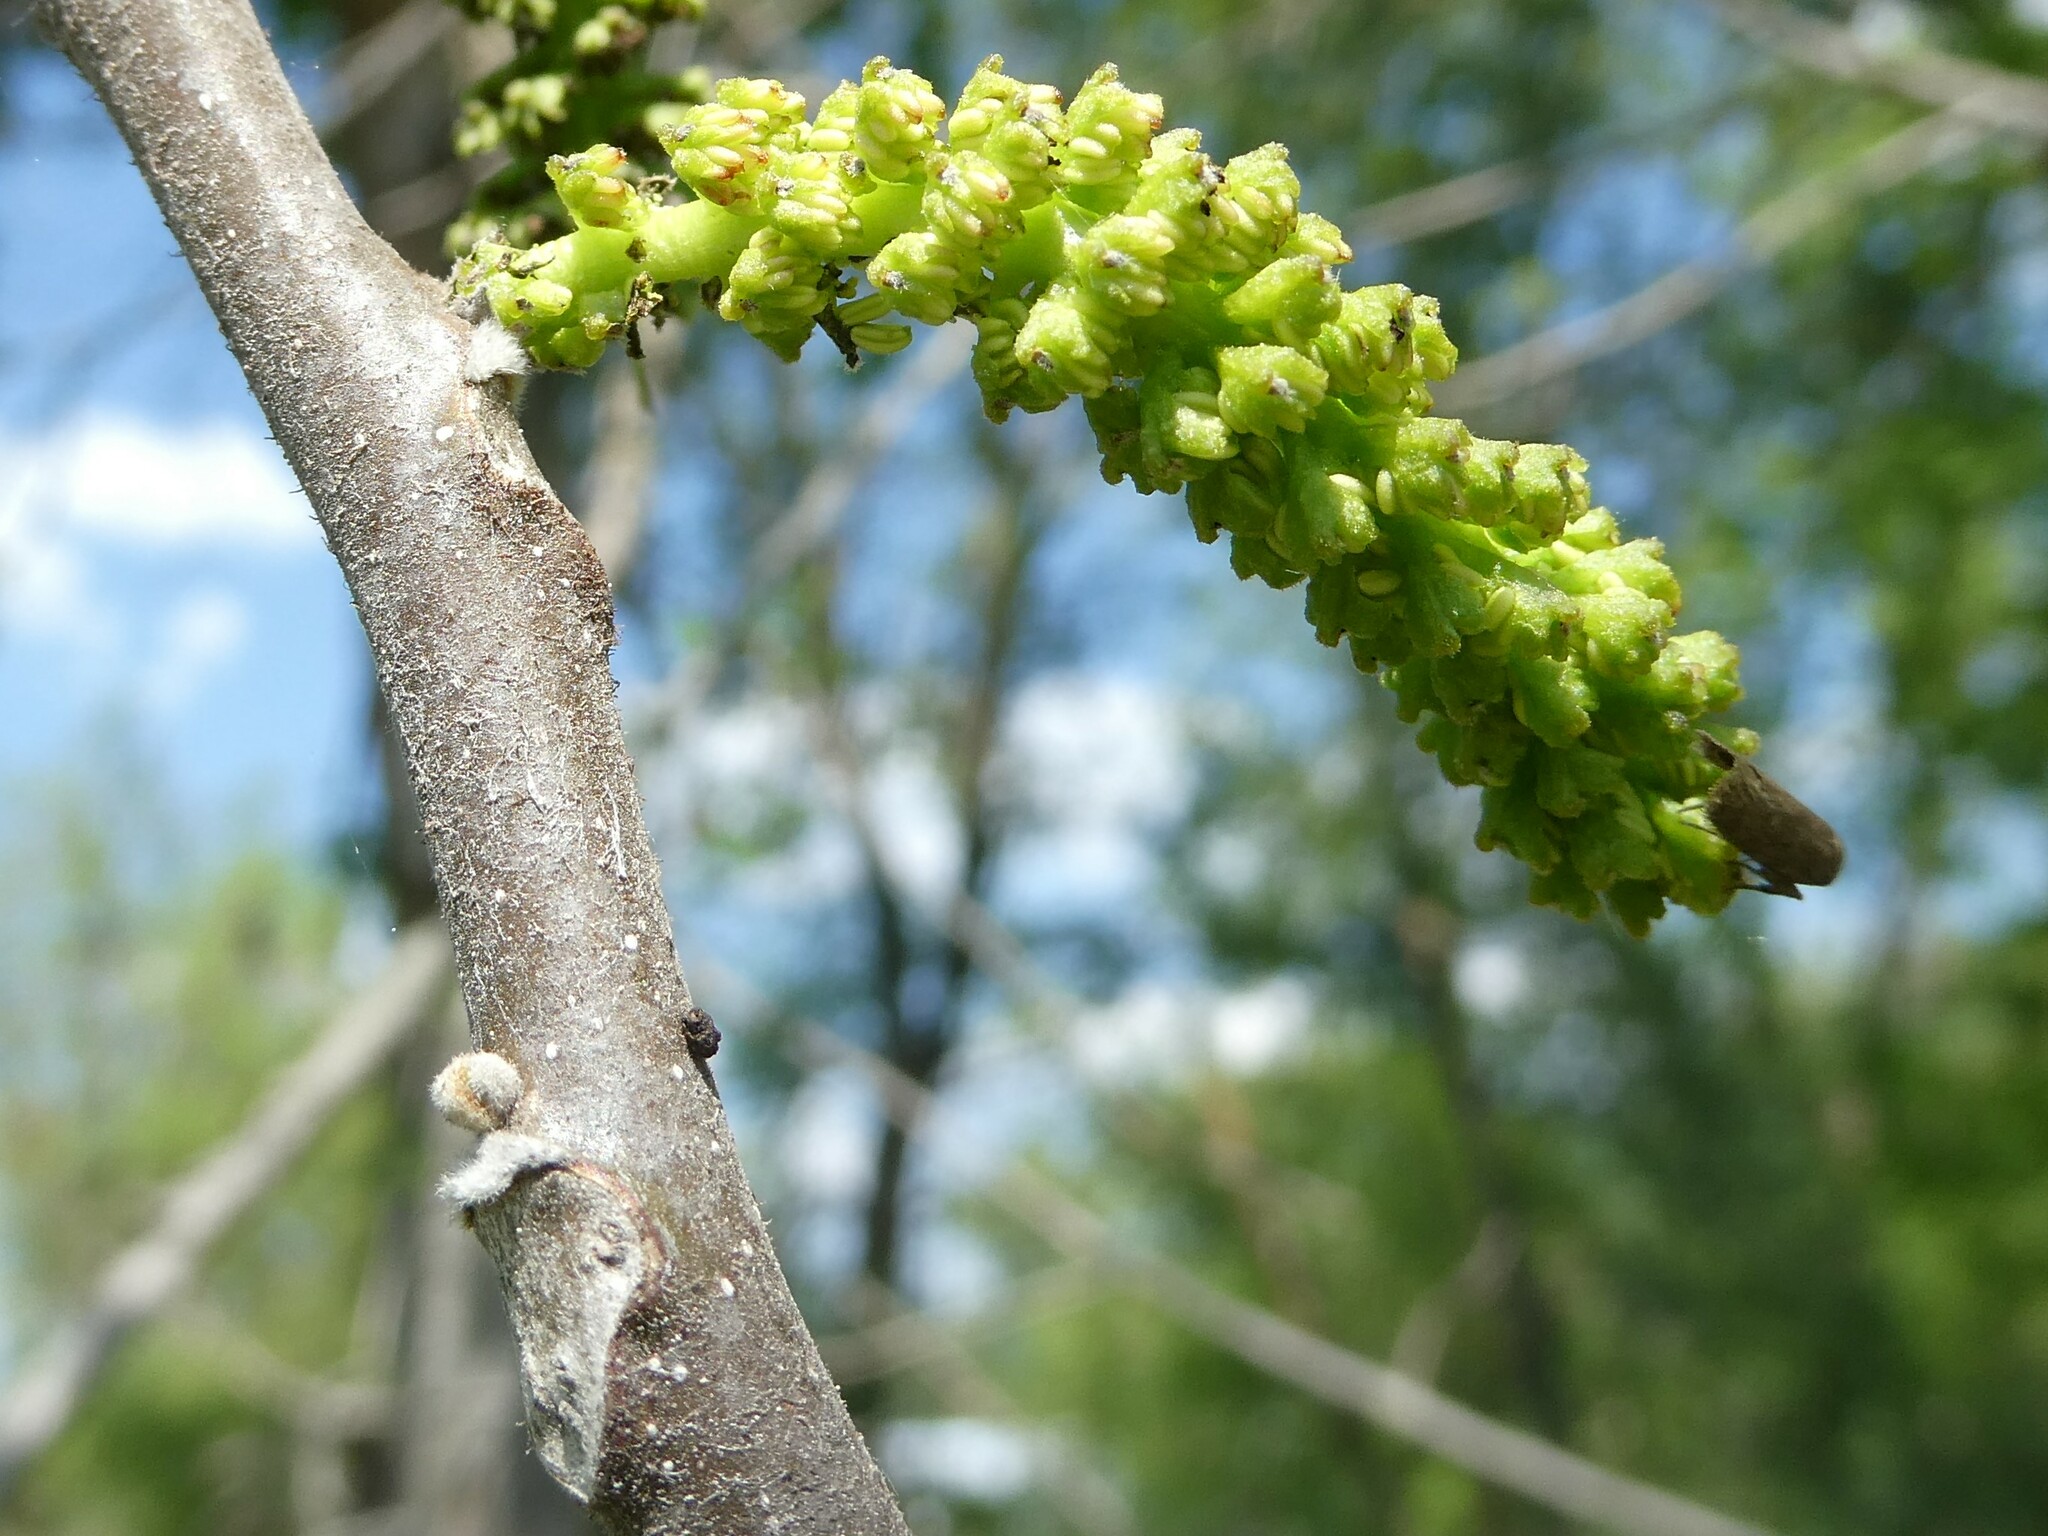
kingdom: Plantae
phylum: Tracheophyta
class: Magnoliopsida
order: Fagales
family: Juglandaceae
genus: Juglans
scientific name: Juglans cinerea
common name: Butternut
